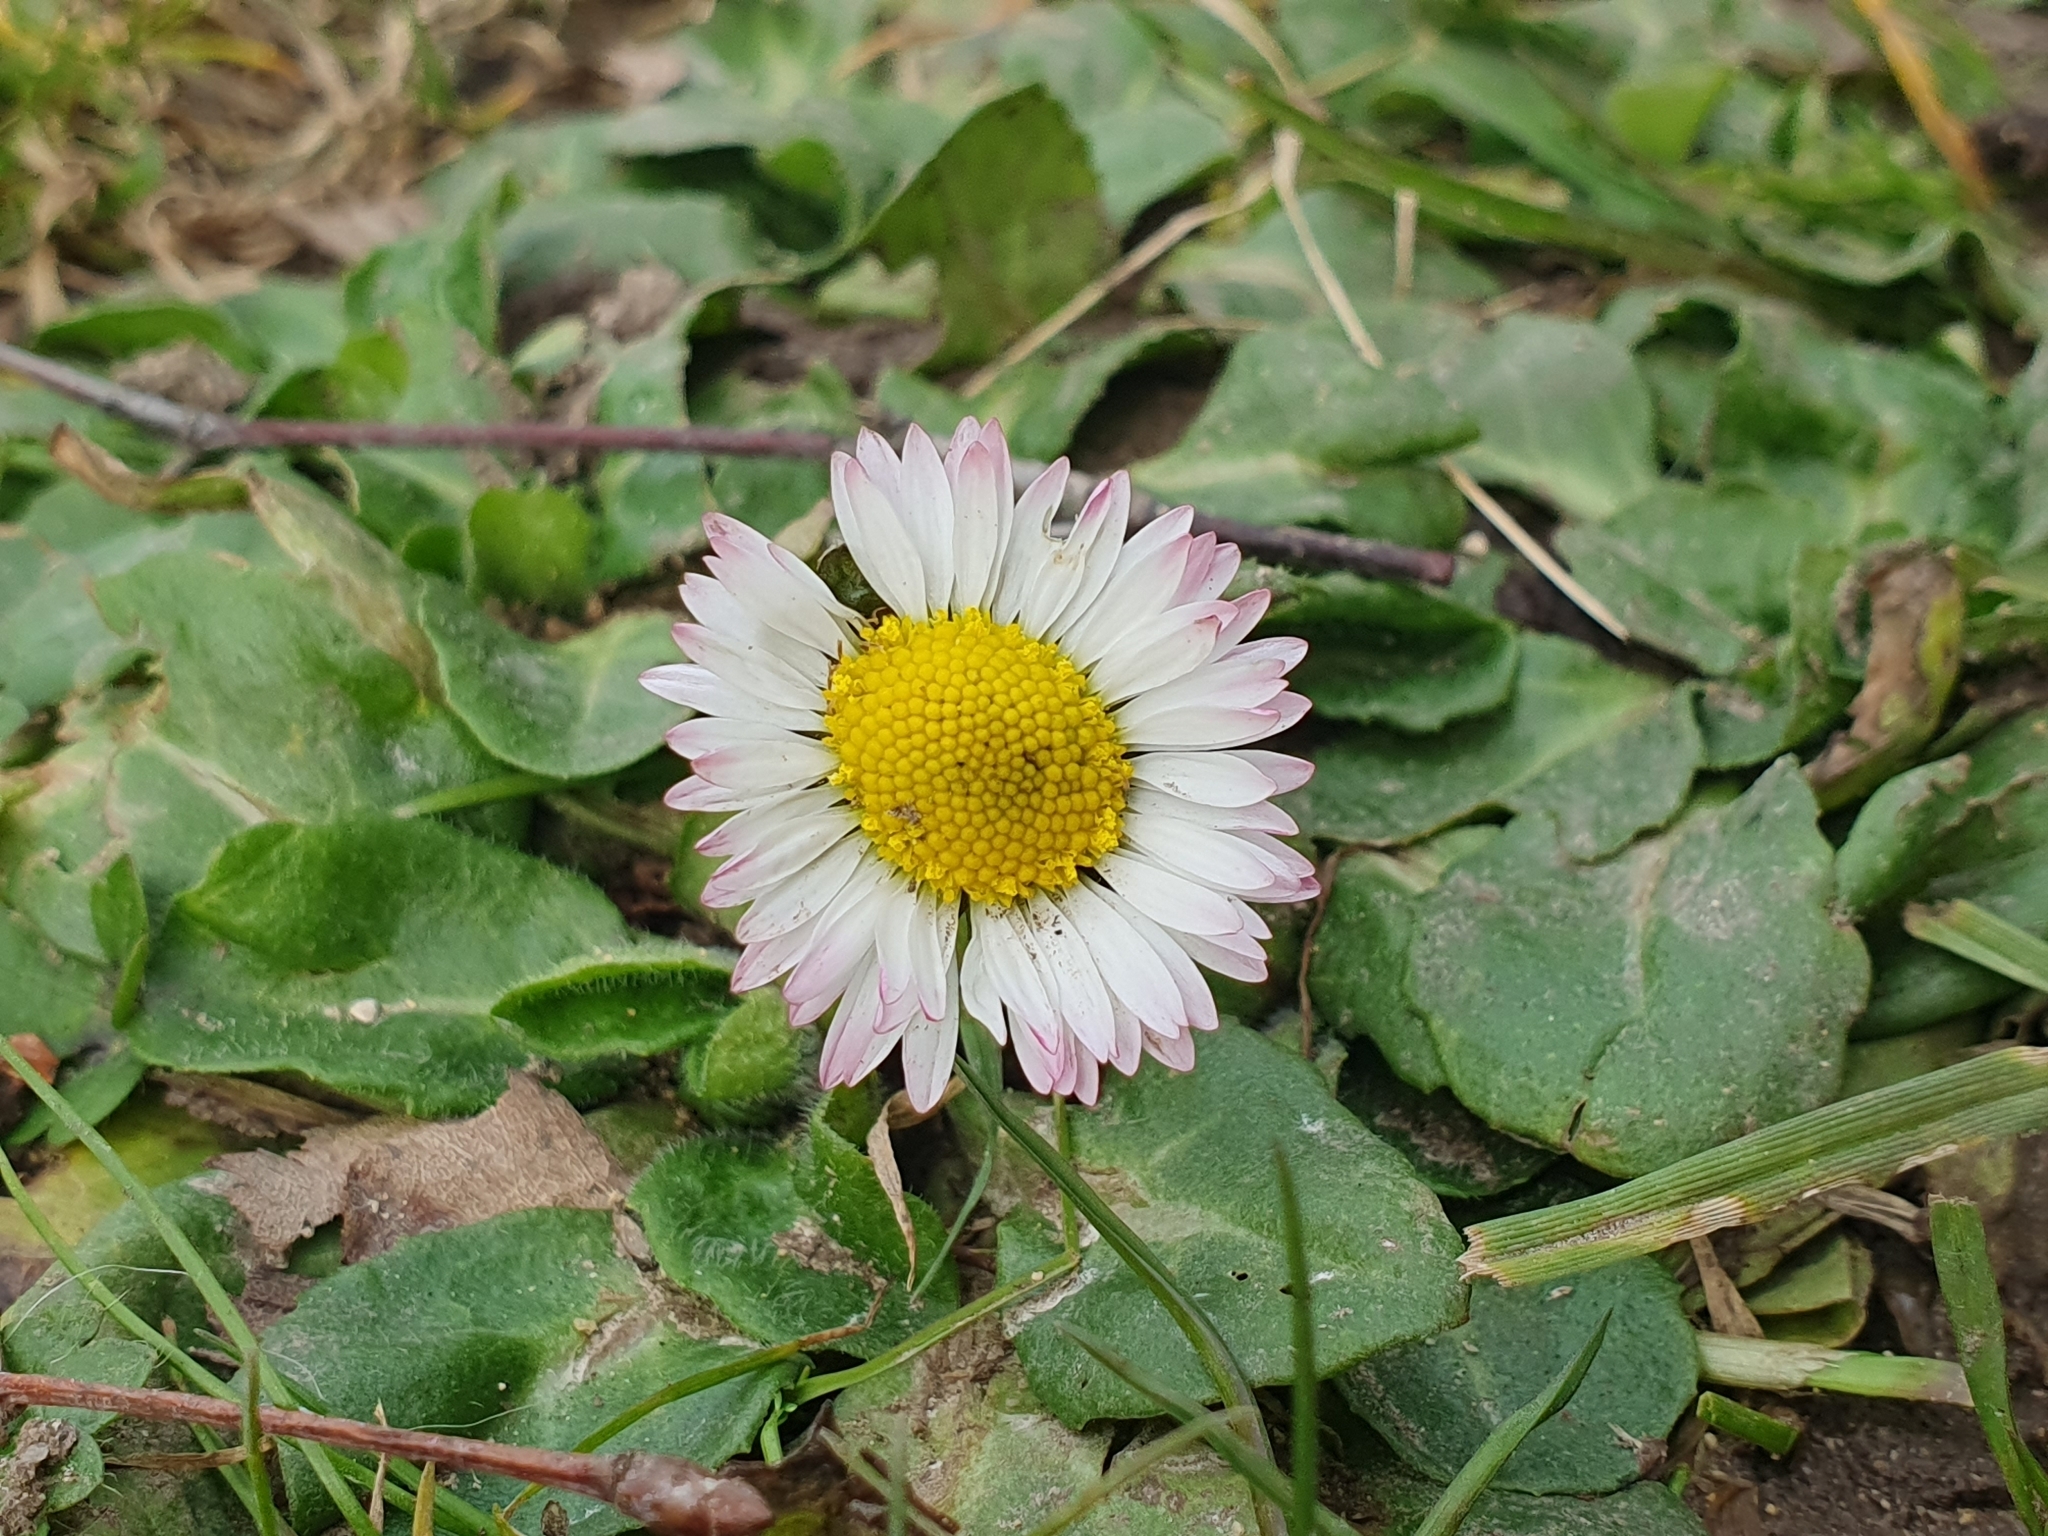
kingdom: Plantae
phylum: Tracheophyta
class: Magnoliopsida
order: Asterales
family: Asteraceae
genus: Bellis
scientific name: Bellis perennis
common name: Lawndaisy
